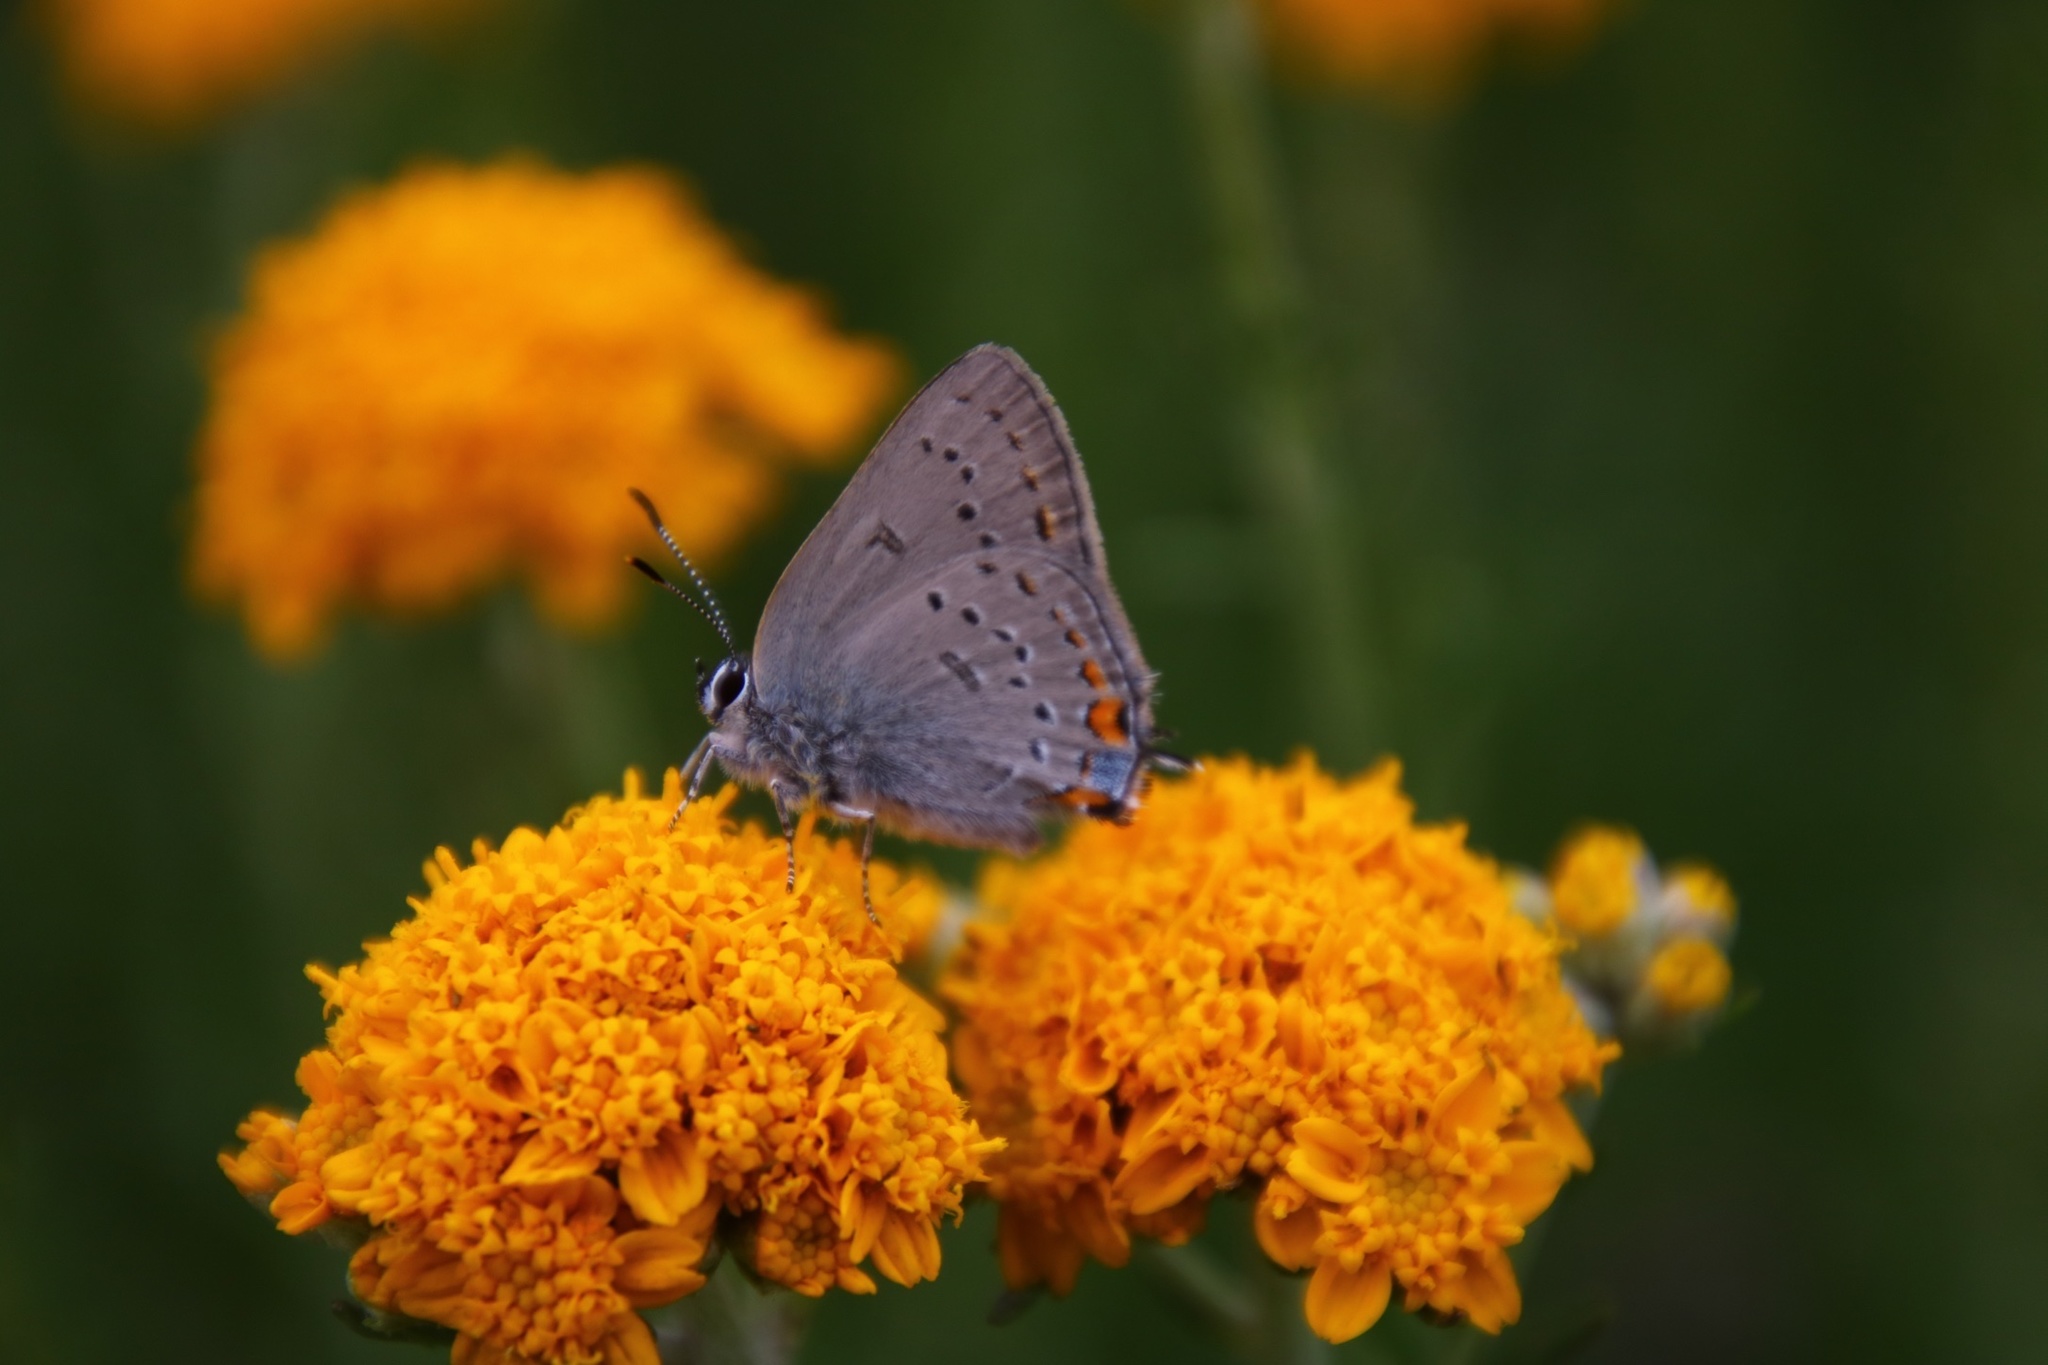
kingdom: Animalia
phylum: Arthropoda
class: Insecta
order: Lepidoptera
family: Lycaenidae
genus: Strymon
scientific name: Strymon acadica
